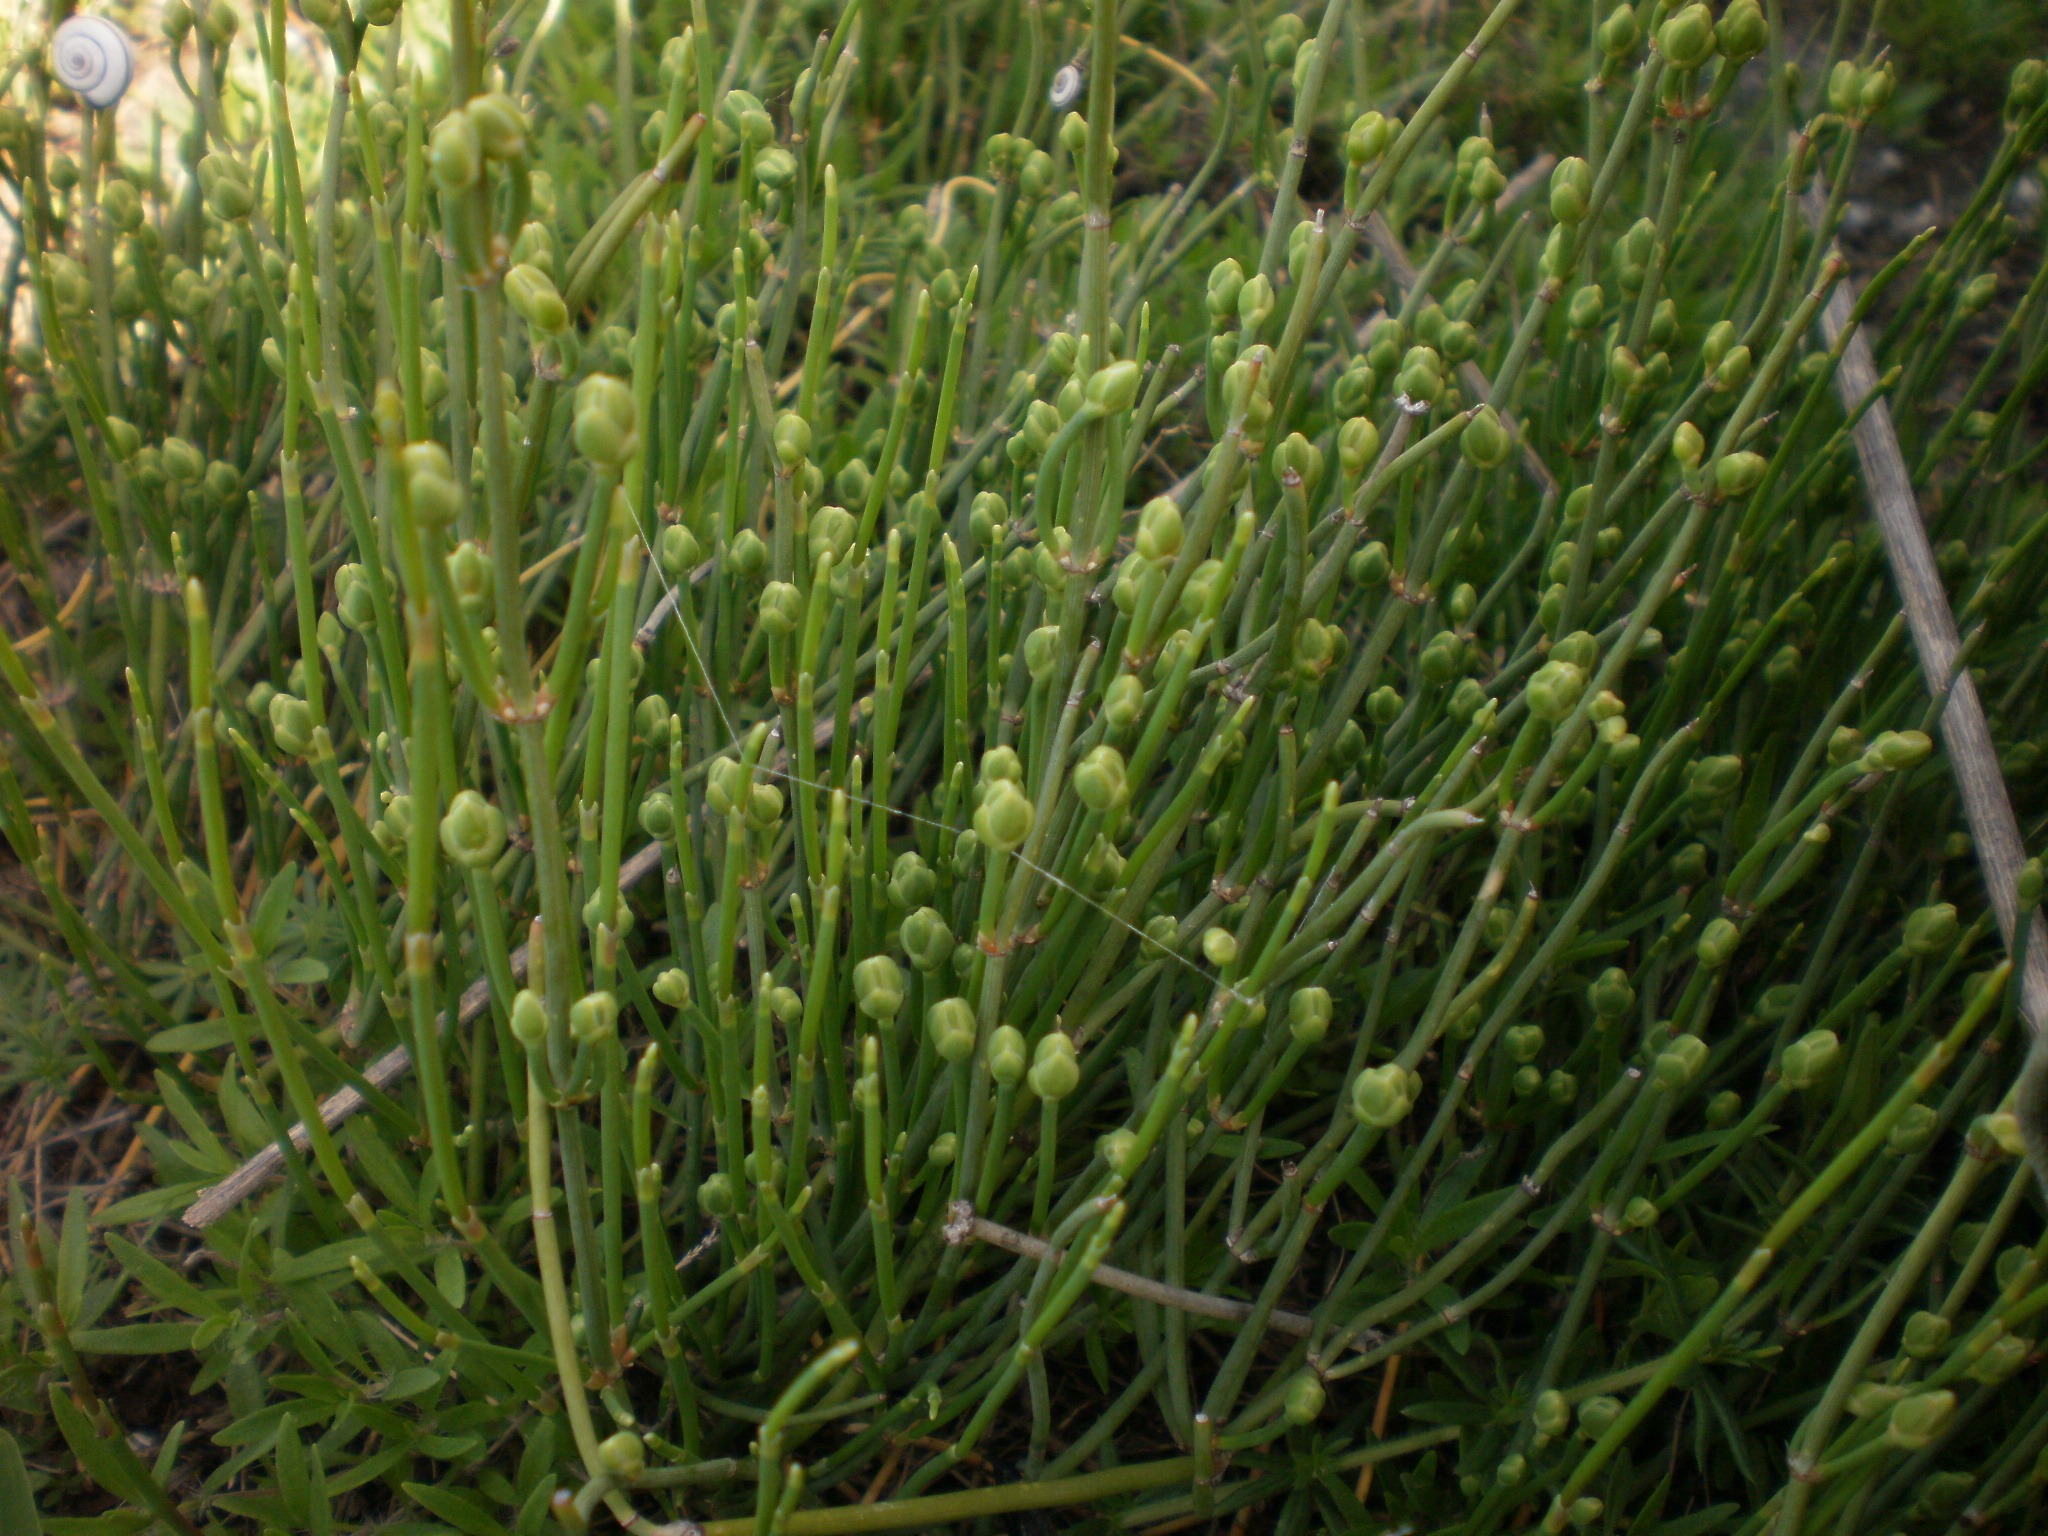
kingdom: Plantae
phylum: Tracheophyta
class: Gnetopsida
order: Ephedrales
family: Ephedraceae
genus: Ephedra
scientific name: Ephedra distachya
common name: Sea grape
